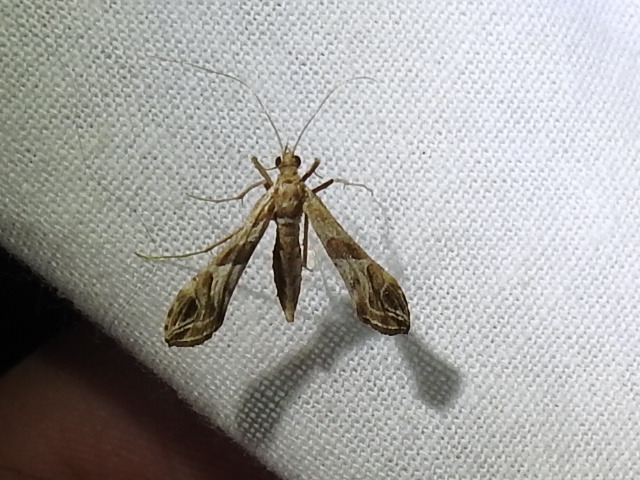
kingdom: Animalia
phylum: Arthropoda
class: Insecta
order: Lepidoptera
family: Crambidae
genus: Lineodes
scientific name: Lineodes interrupta
